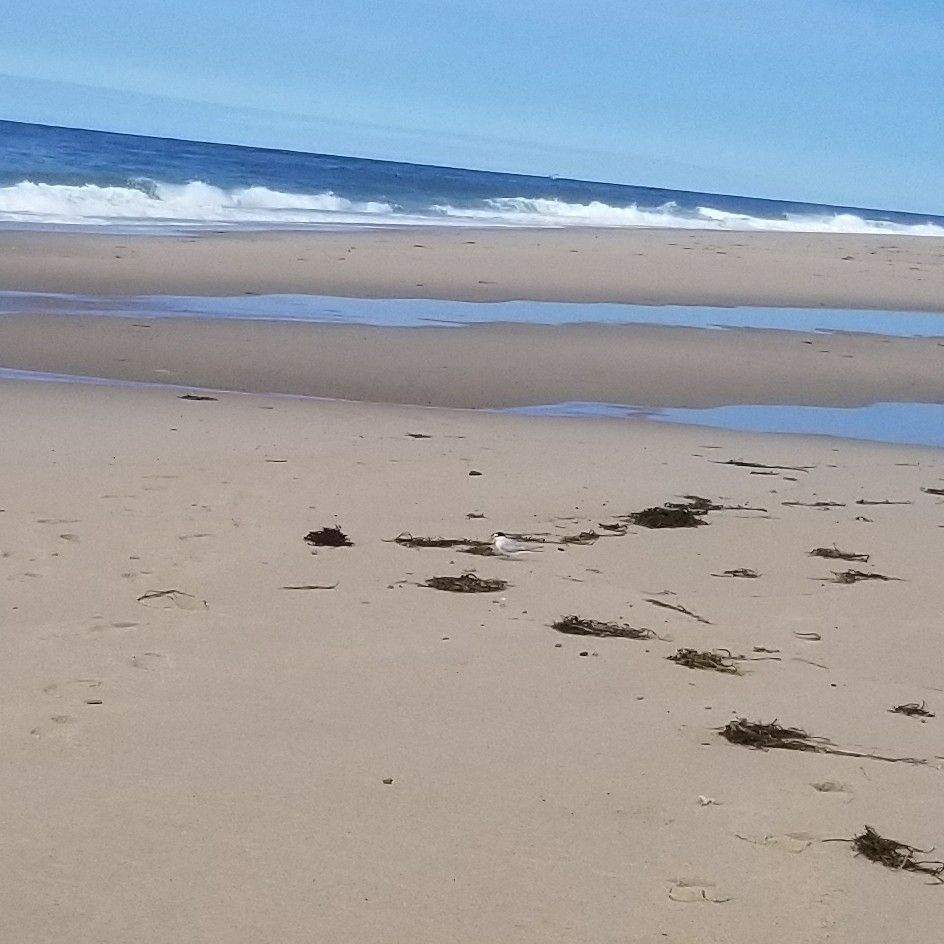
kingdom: Animalia
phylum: Chordata
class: Aves
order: Charadriiformes
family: Laridae
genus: Sternula
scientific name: Sternula antillarum
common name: Least tern
